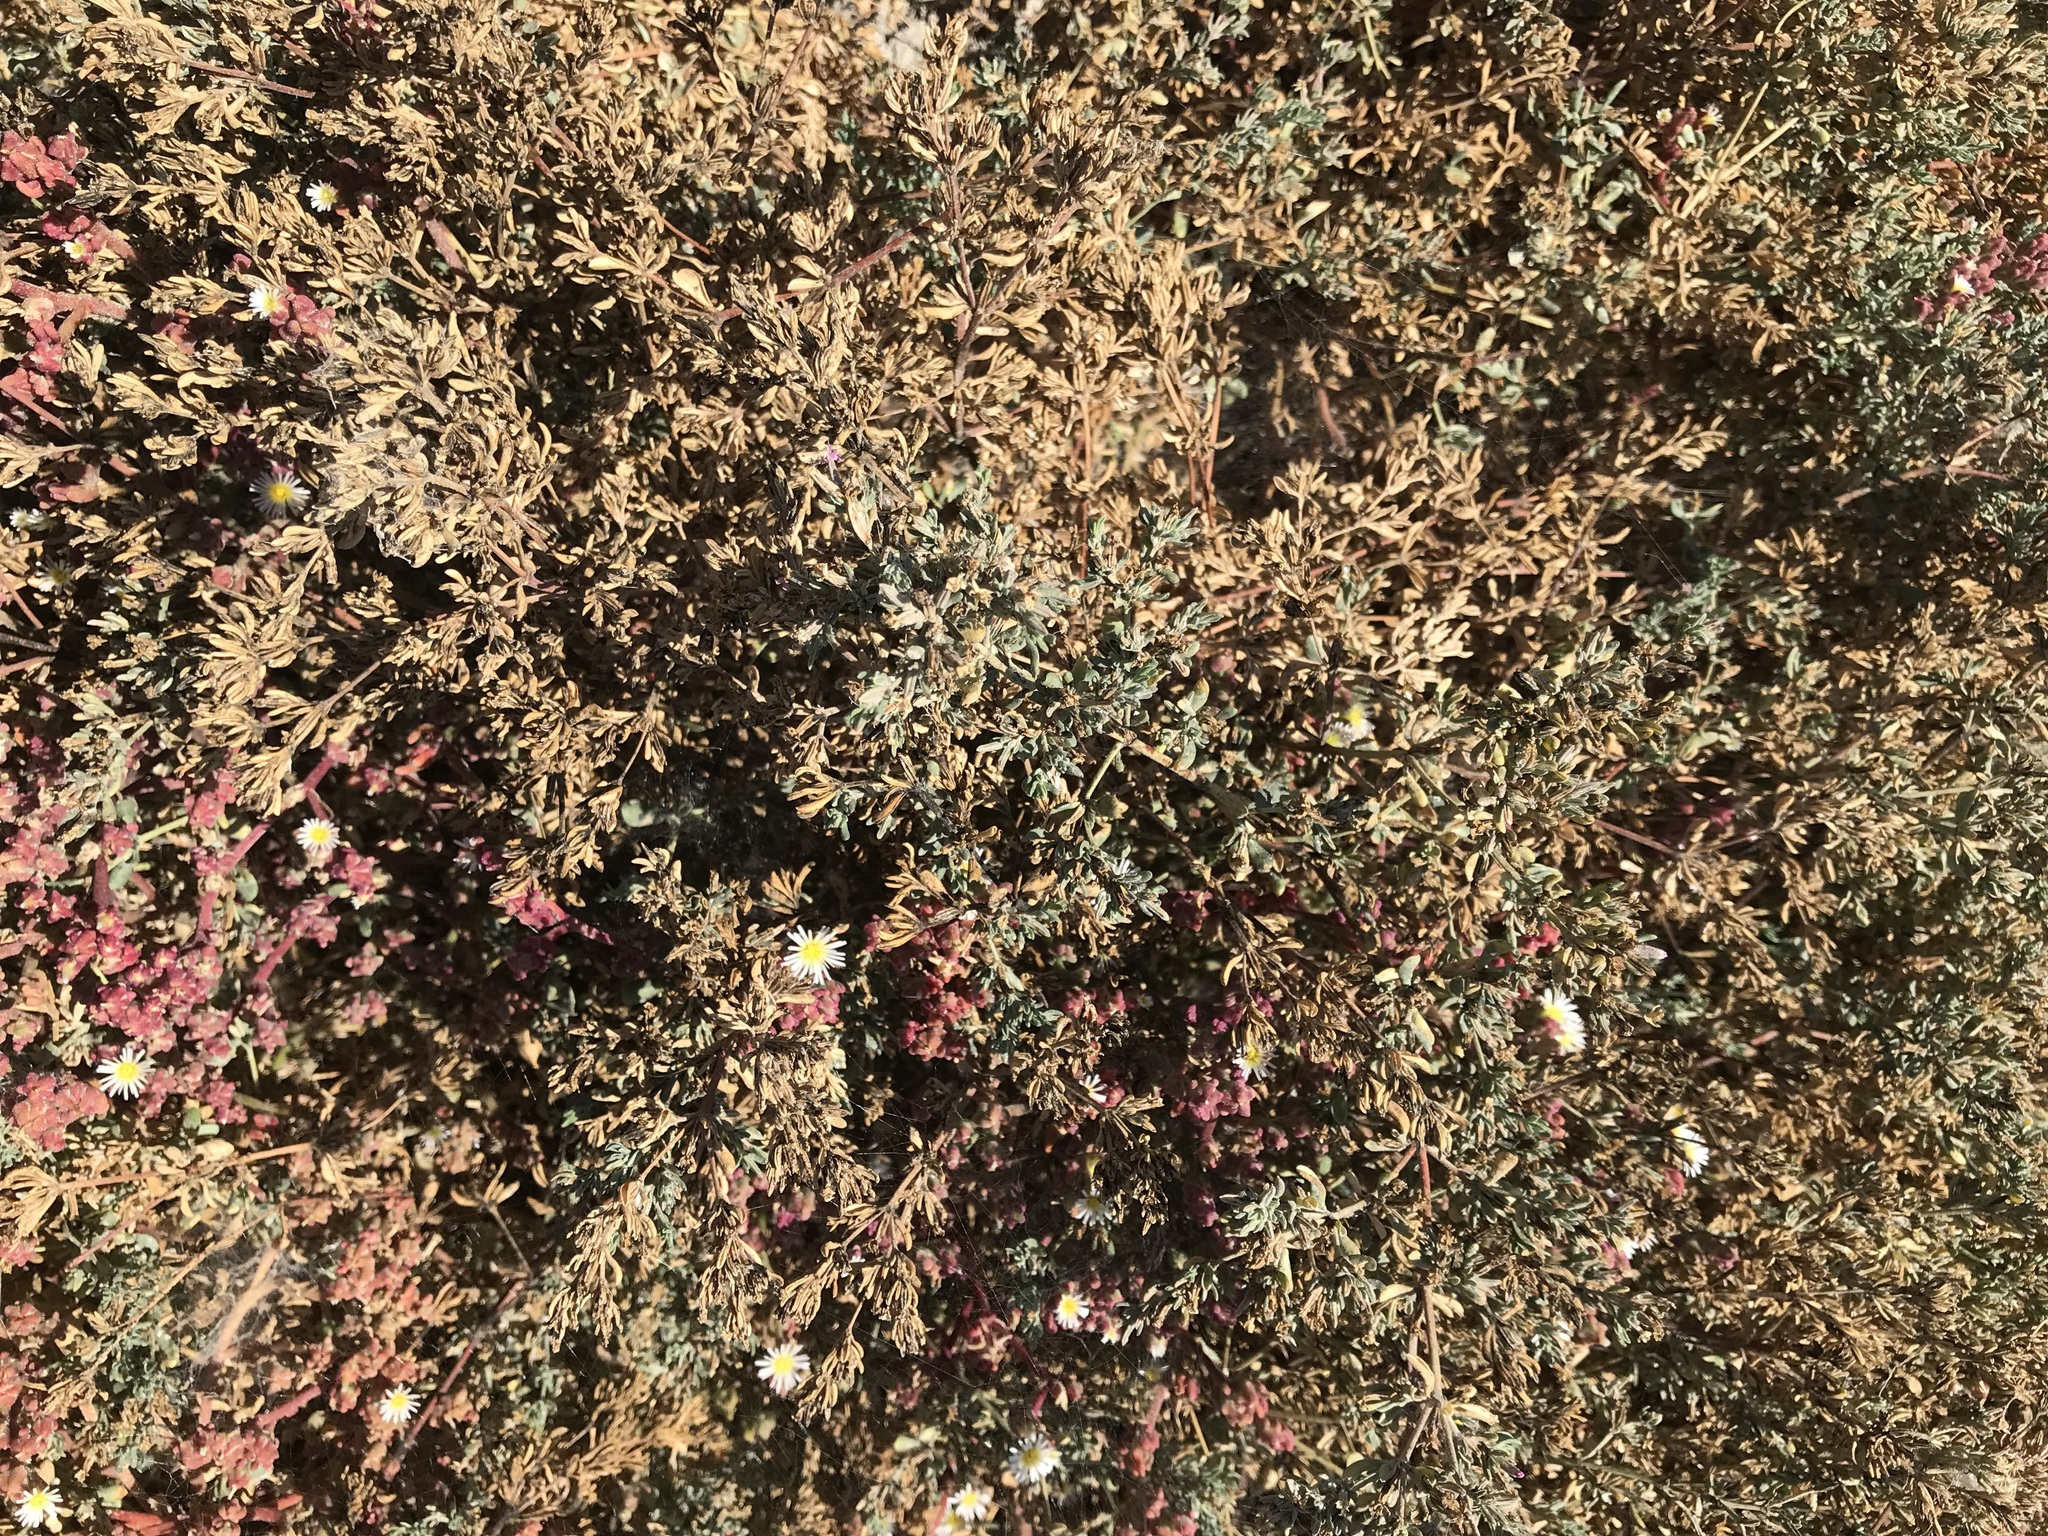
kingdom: Plantae
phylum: Tracheophyta
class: Magnoliopsida
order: Caryophyllales
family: Frankeniaceae
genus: Frankenia
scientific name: Frankenia salina
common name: Alkali seaheath
